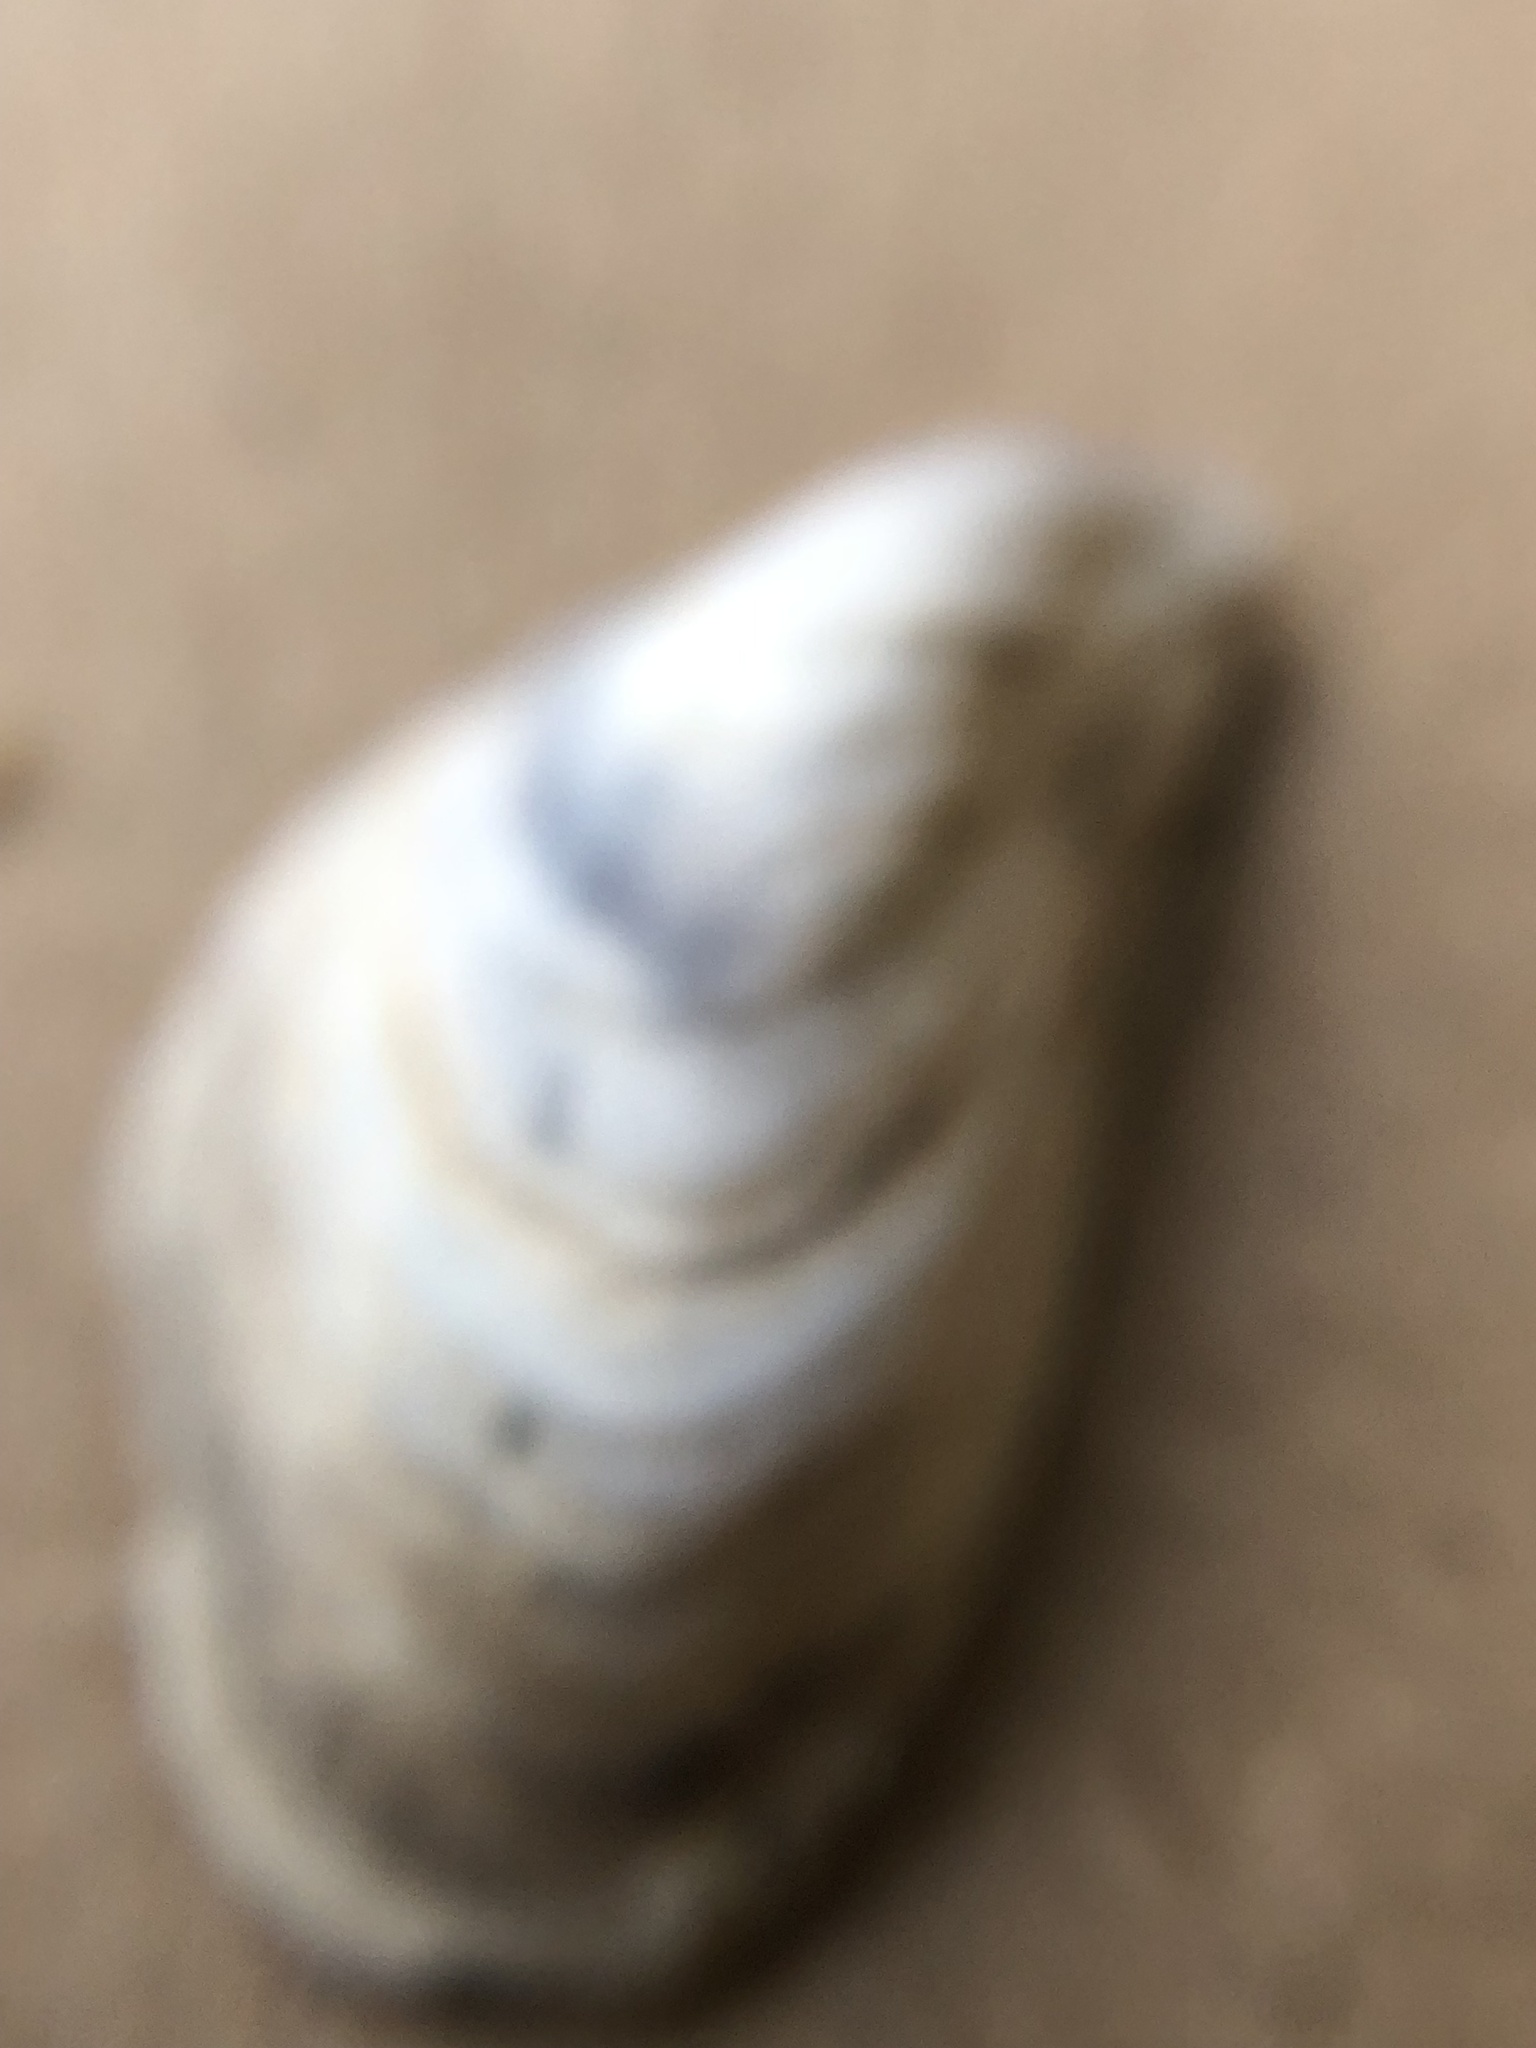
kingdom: Animalia
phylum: Mollusca
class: Bivalvia
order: Myida
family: Dreissenidae
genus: Dreissena
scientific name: Dreissena bugensis
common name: Quagga mussel
